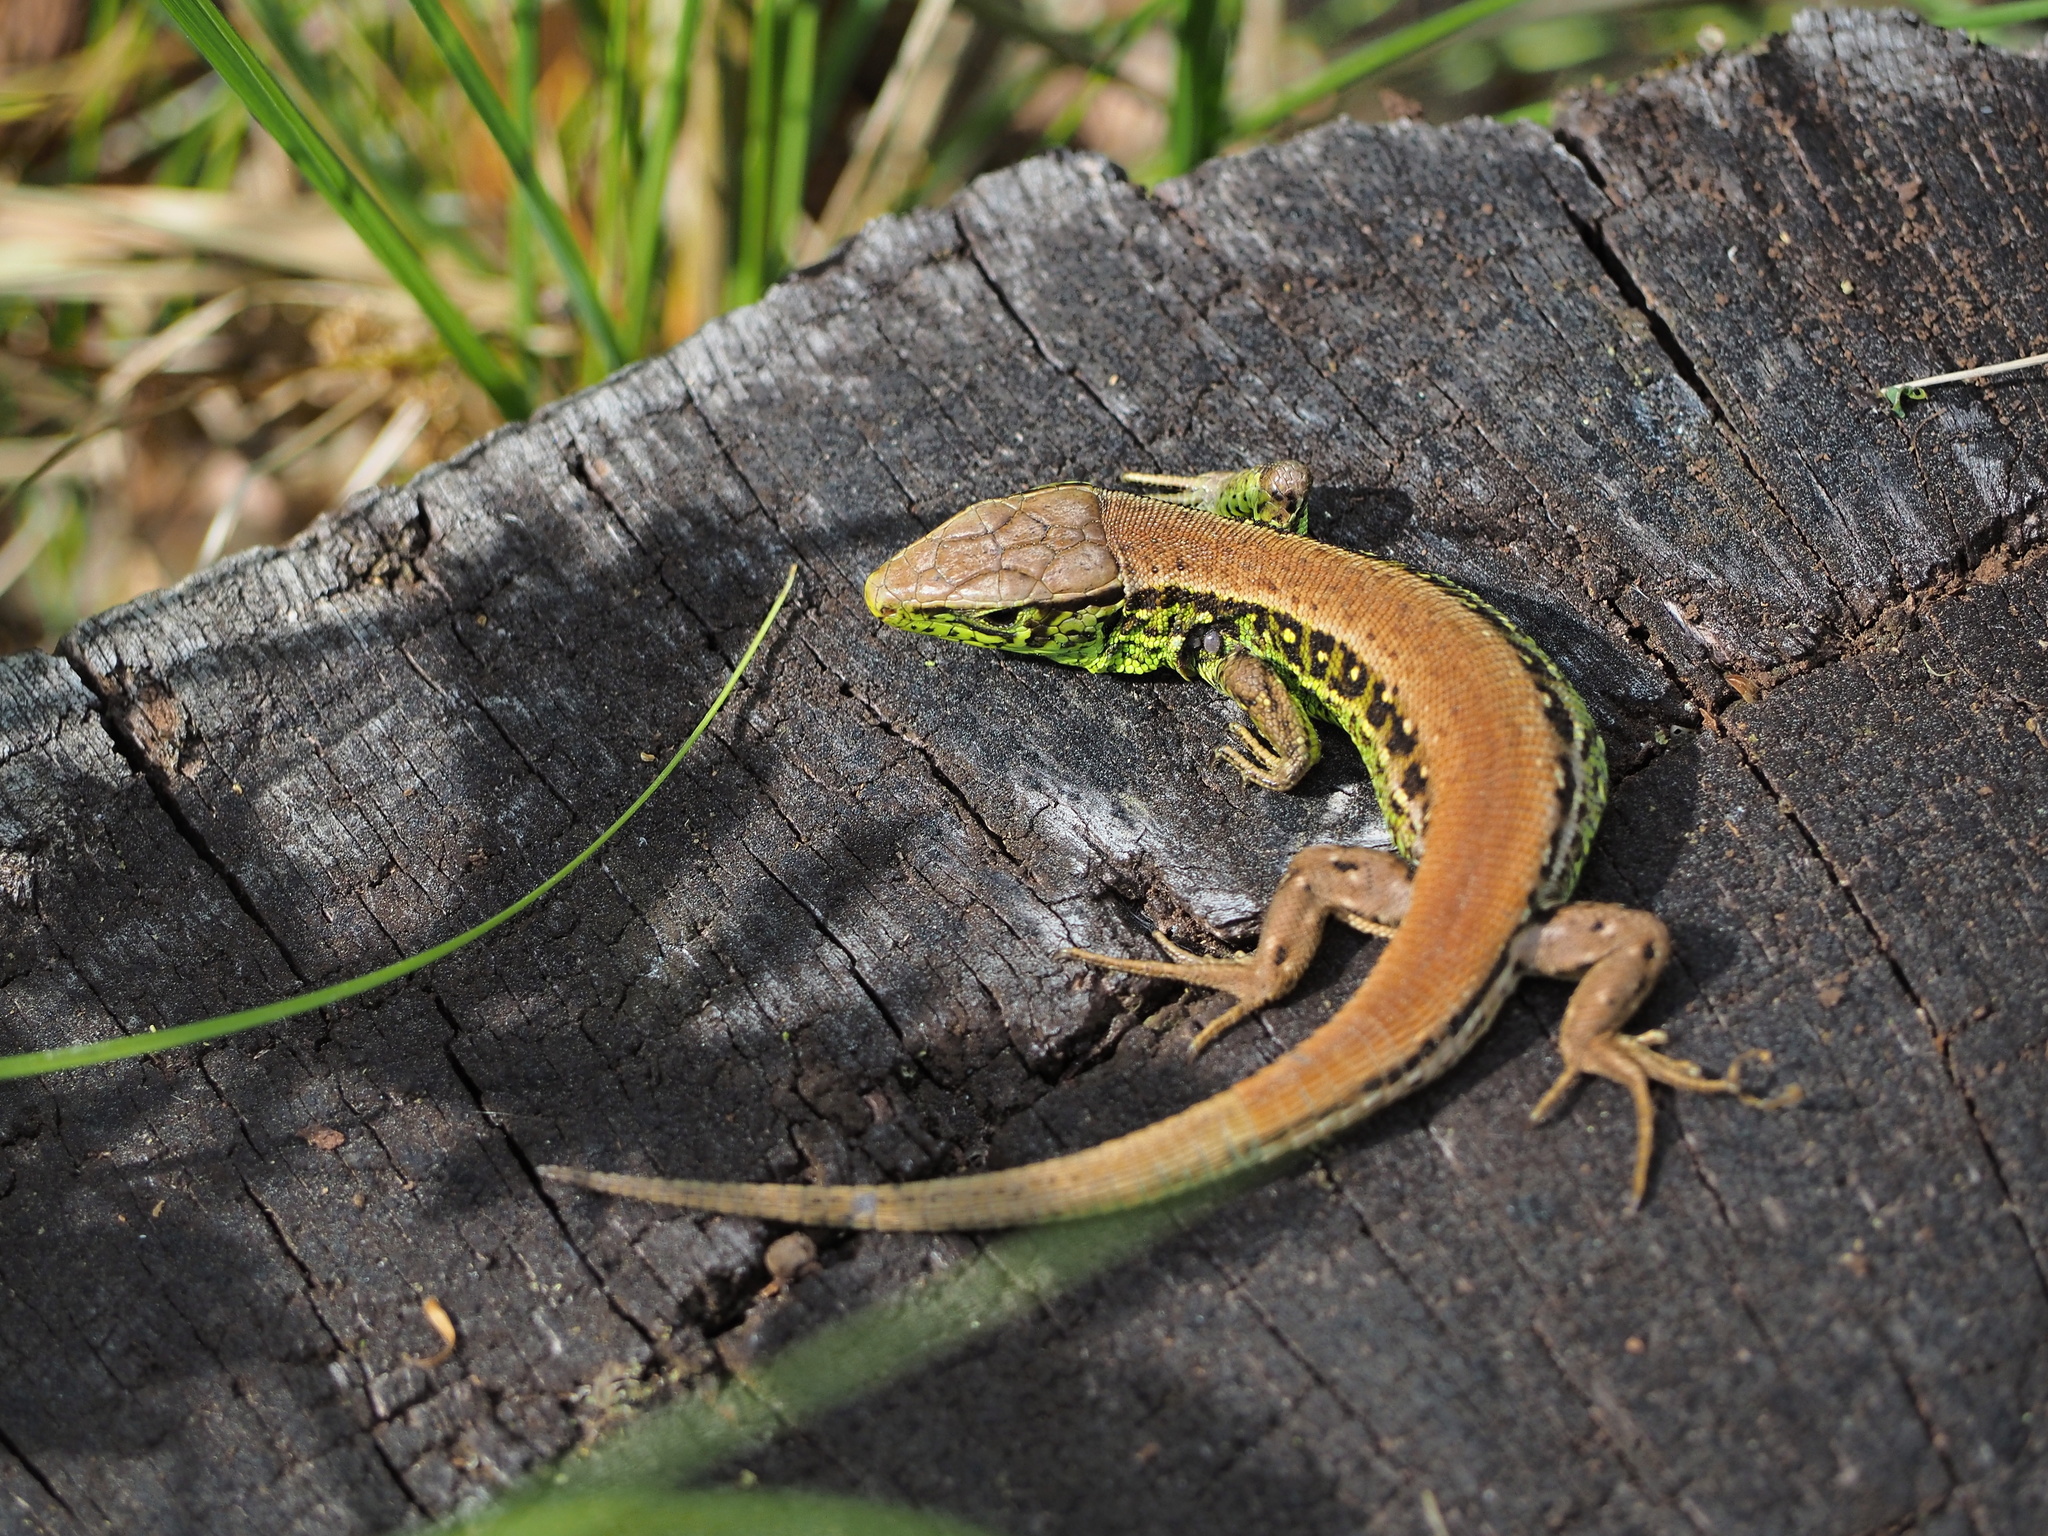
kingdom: Animalia
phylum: Chordata
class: Squamata
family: Lacertidae
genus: Lacerta
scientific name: Lacerta agilis
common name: Sand lizard
